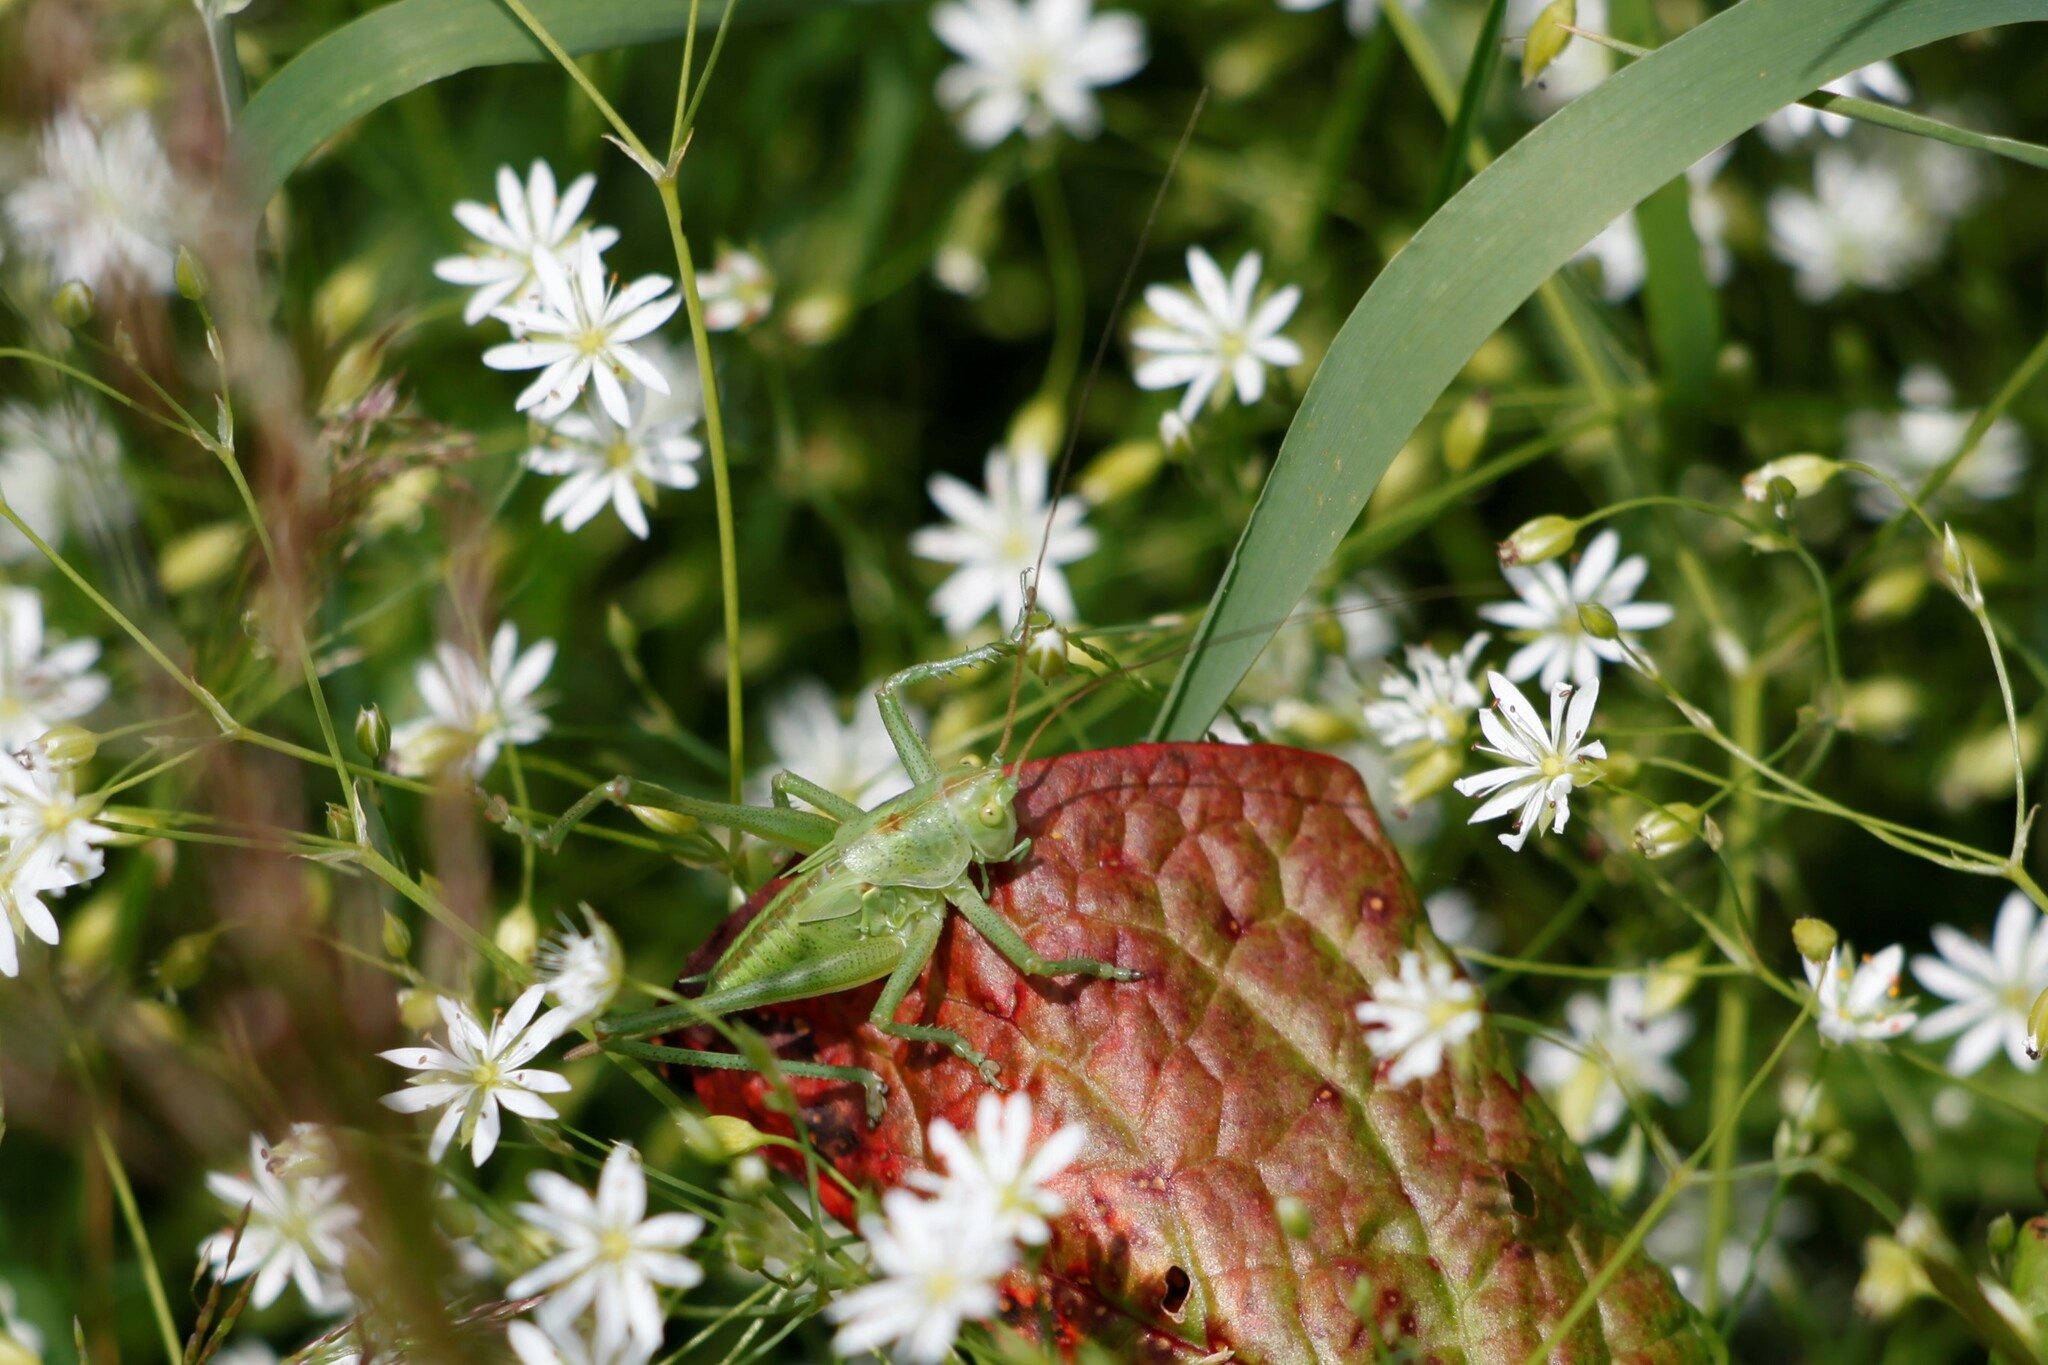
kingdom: Animalia
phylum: Arthropoda
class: Insecta
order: Orthoptera
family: Tettigoniidae
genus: Tettigonia
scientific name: Tettigonia viridissima
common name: Great green bush-cricket
